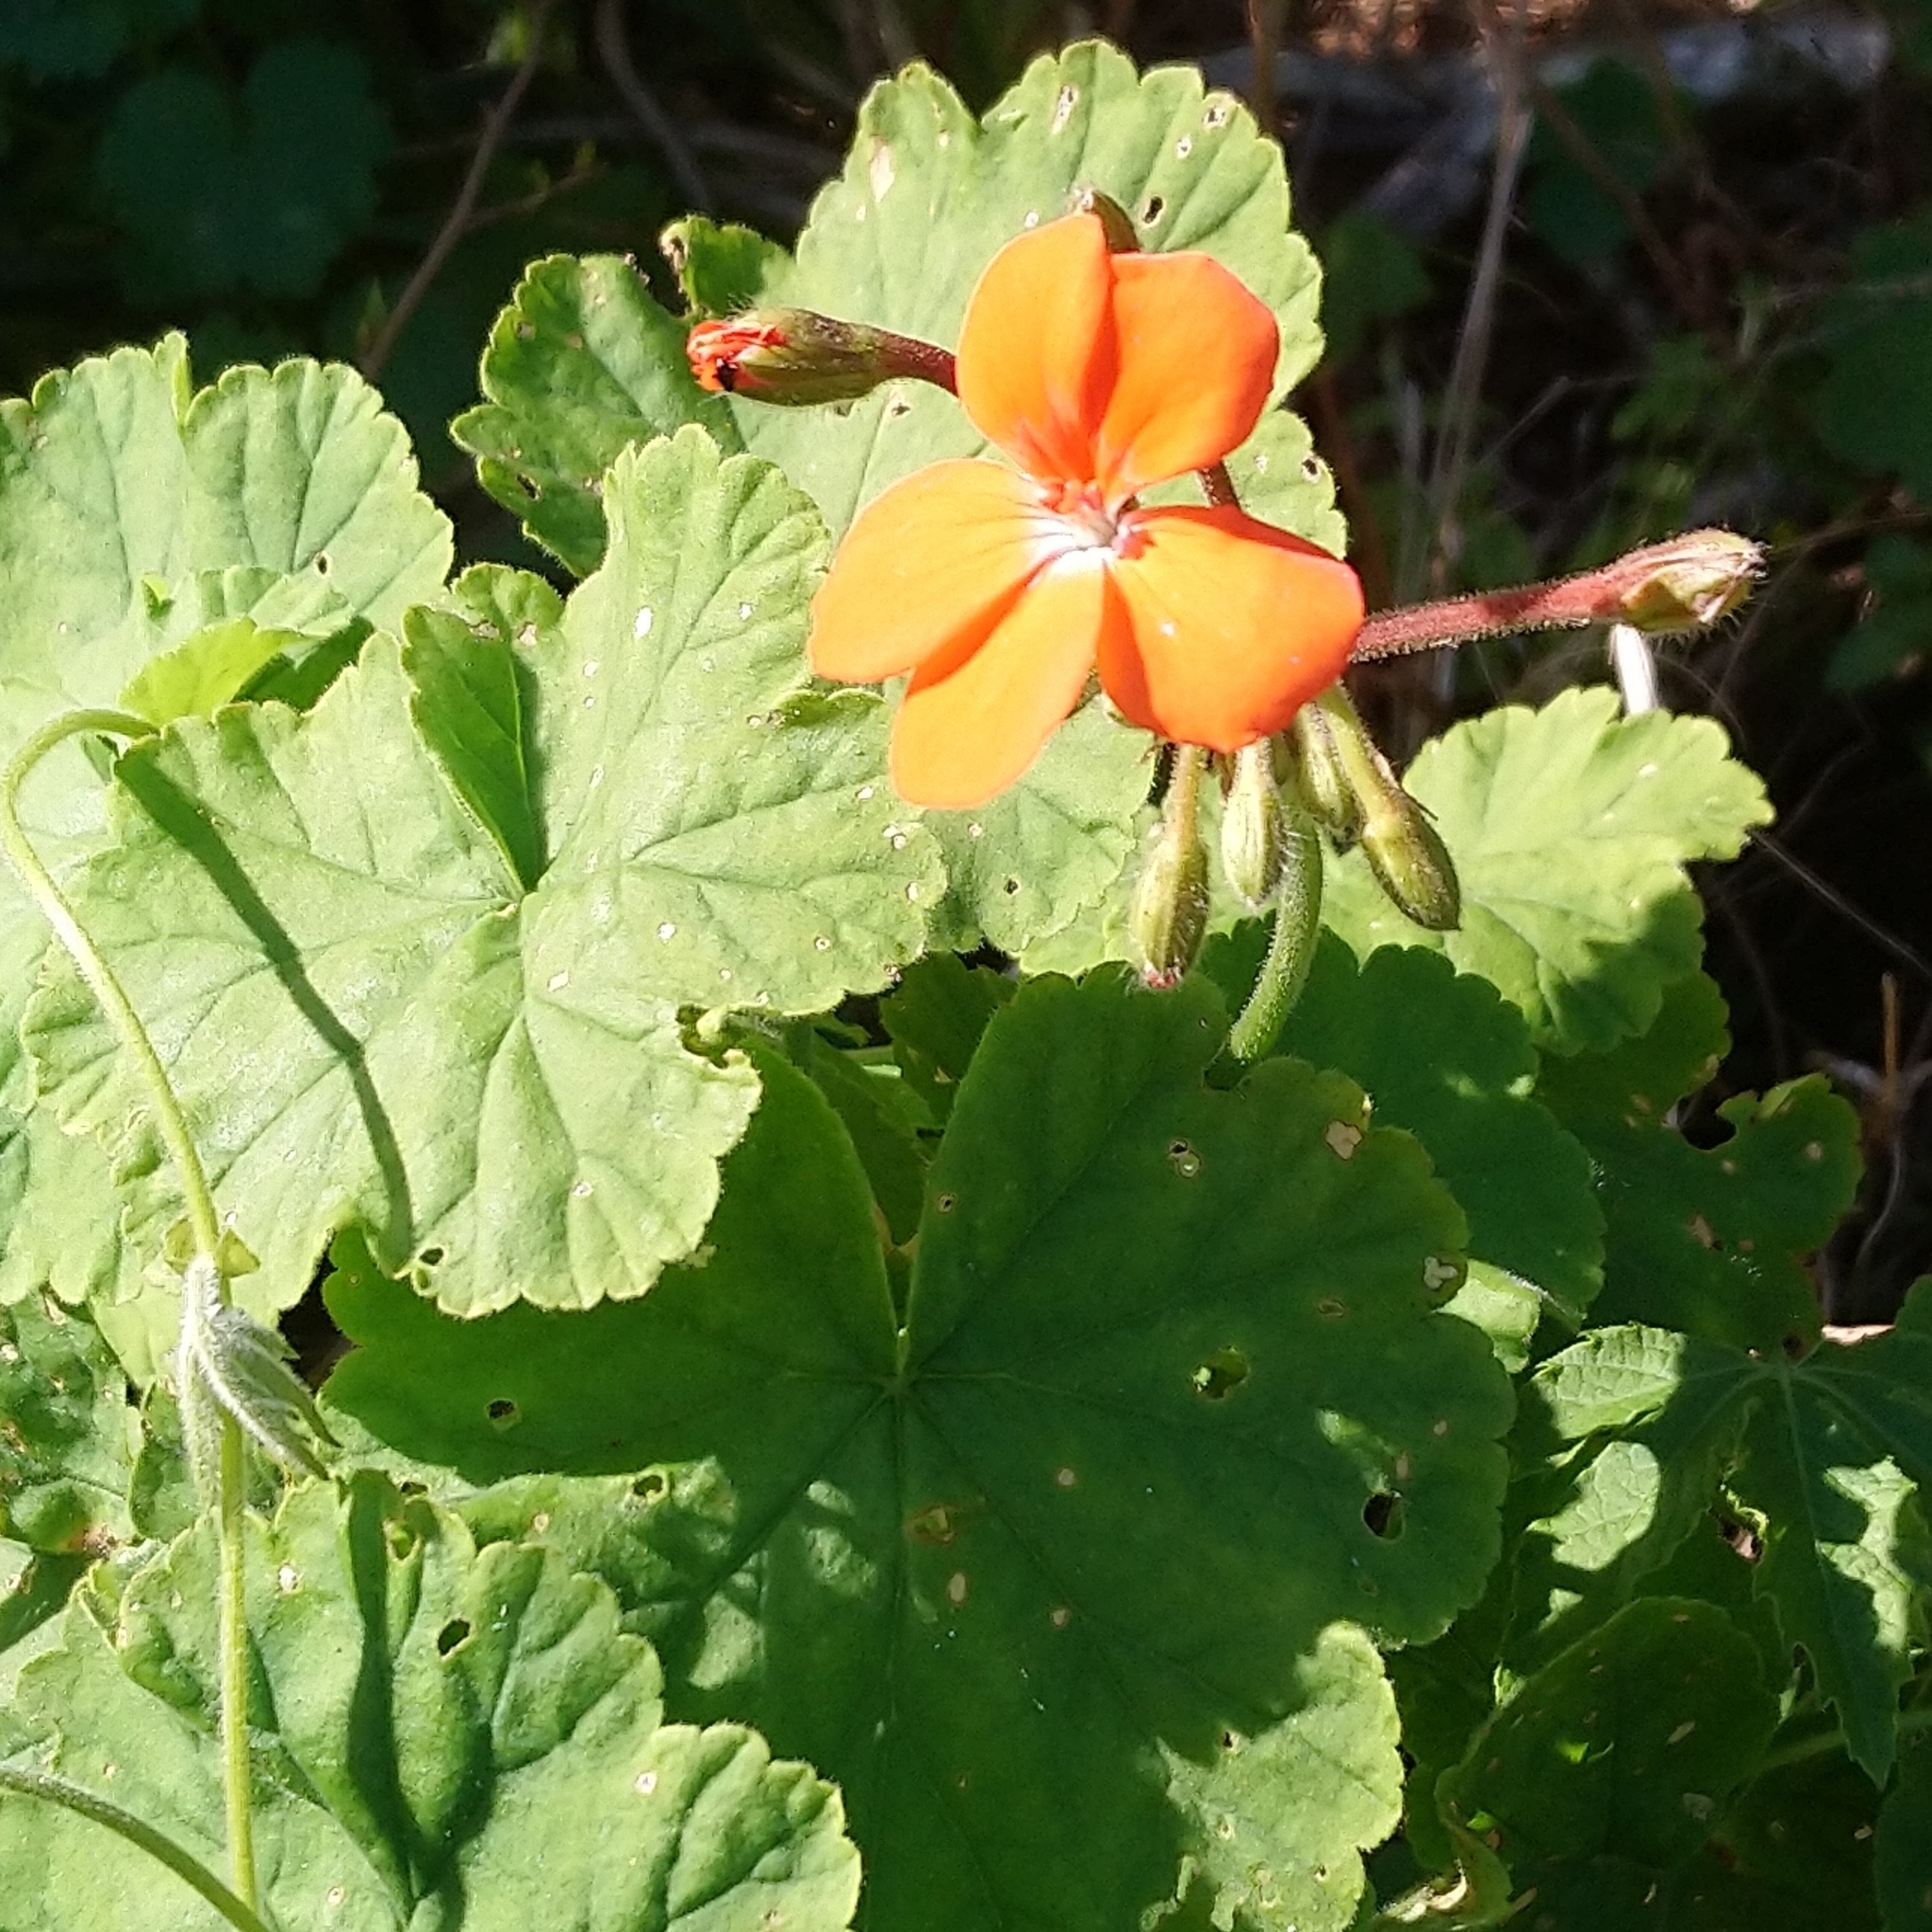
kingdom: Plantae
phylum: Tracheophyta
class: Magnoliopsida
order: Geraniales
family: Geraniaceae
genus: Pelargonium
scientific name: Pelargonium inquinans
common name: Scarlet geranium
